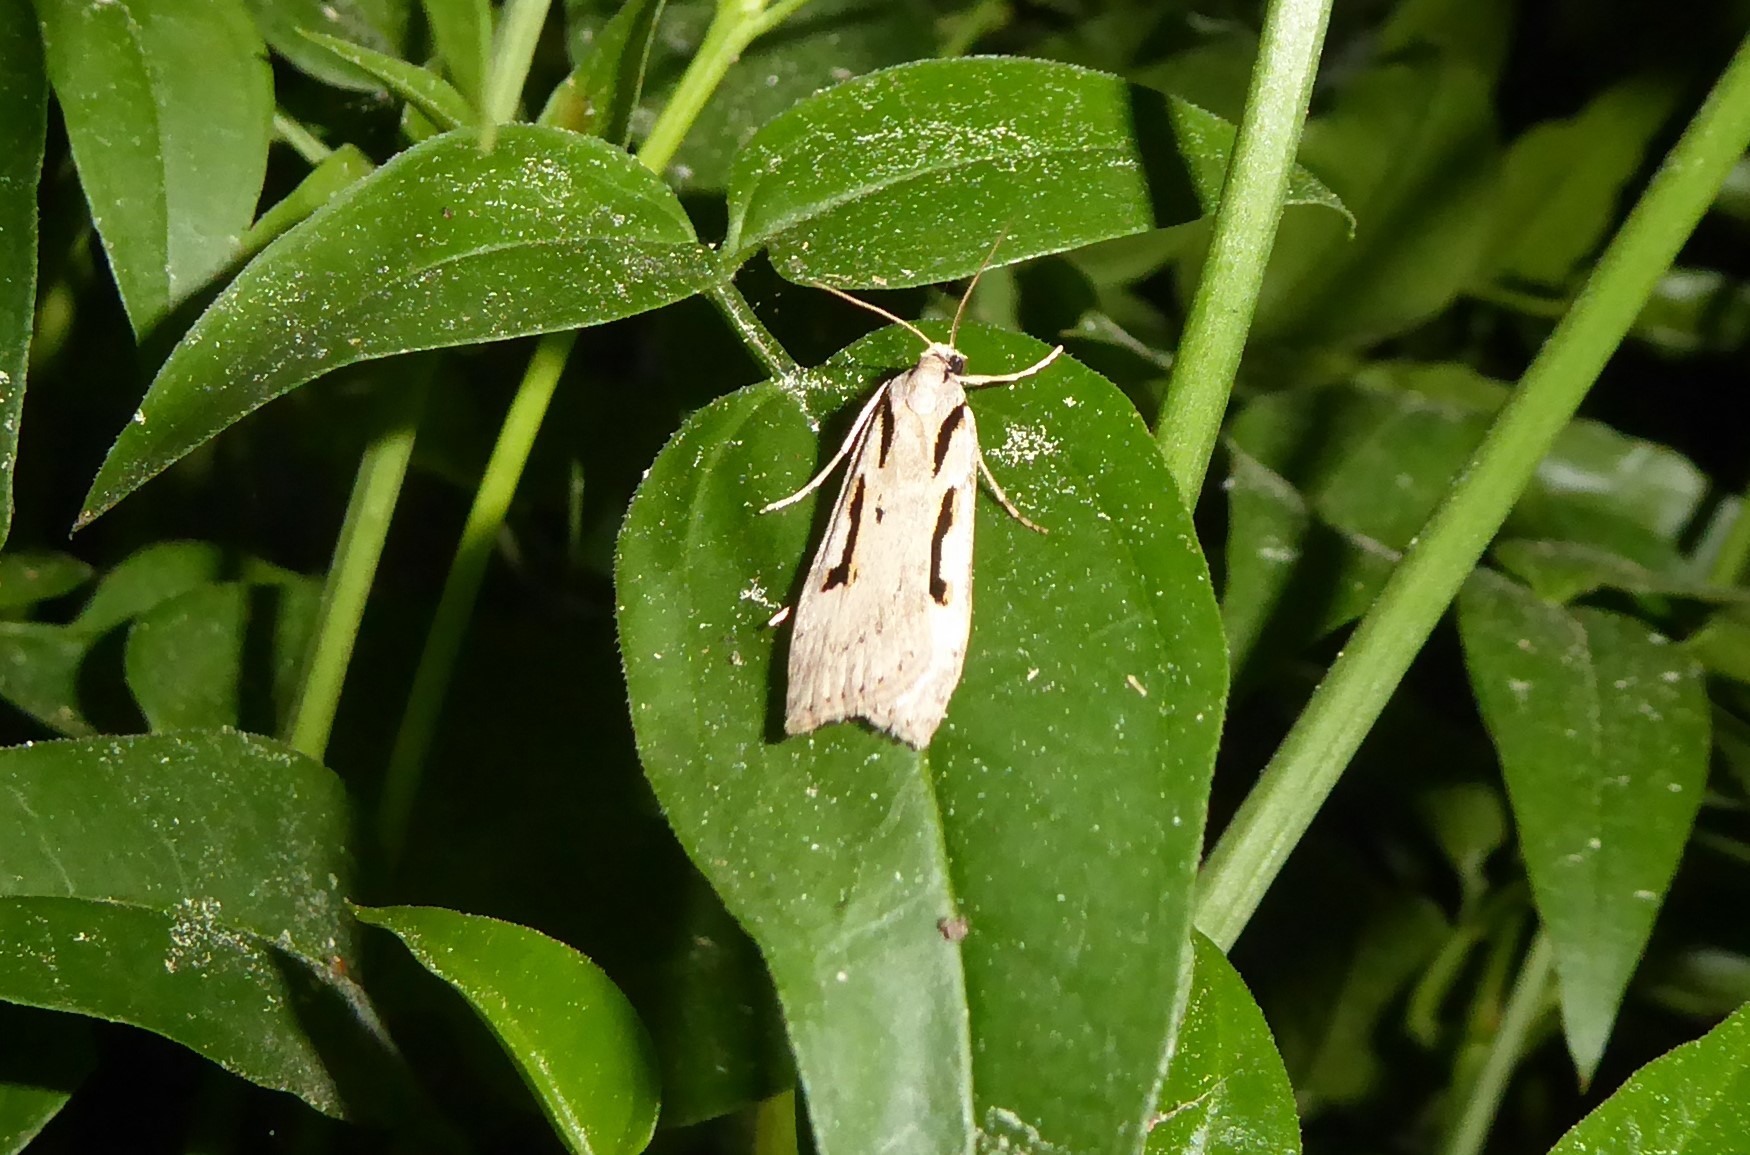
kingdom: Animalia
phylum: Arthropoda
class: Insecta
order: Lepidoptera
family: Crambidae
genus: Scoparia
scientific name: Scoparia rotuellus
